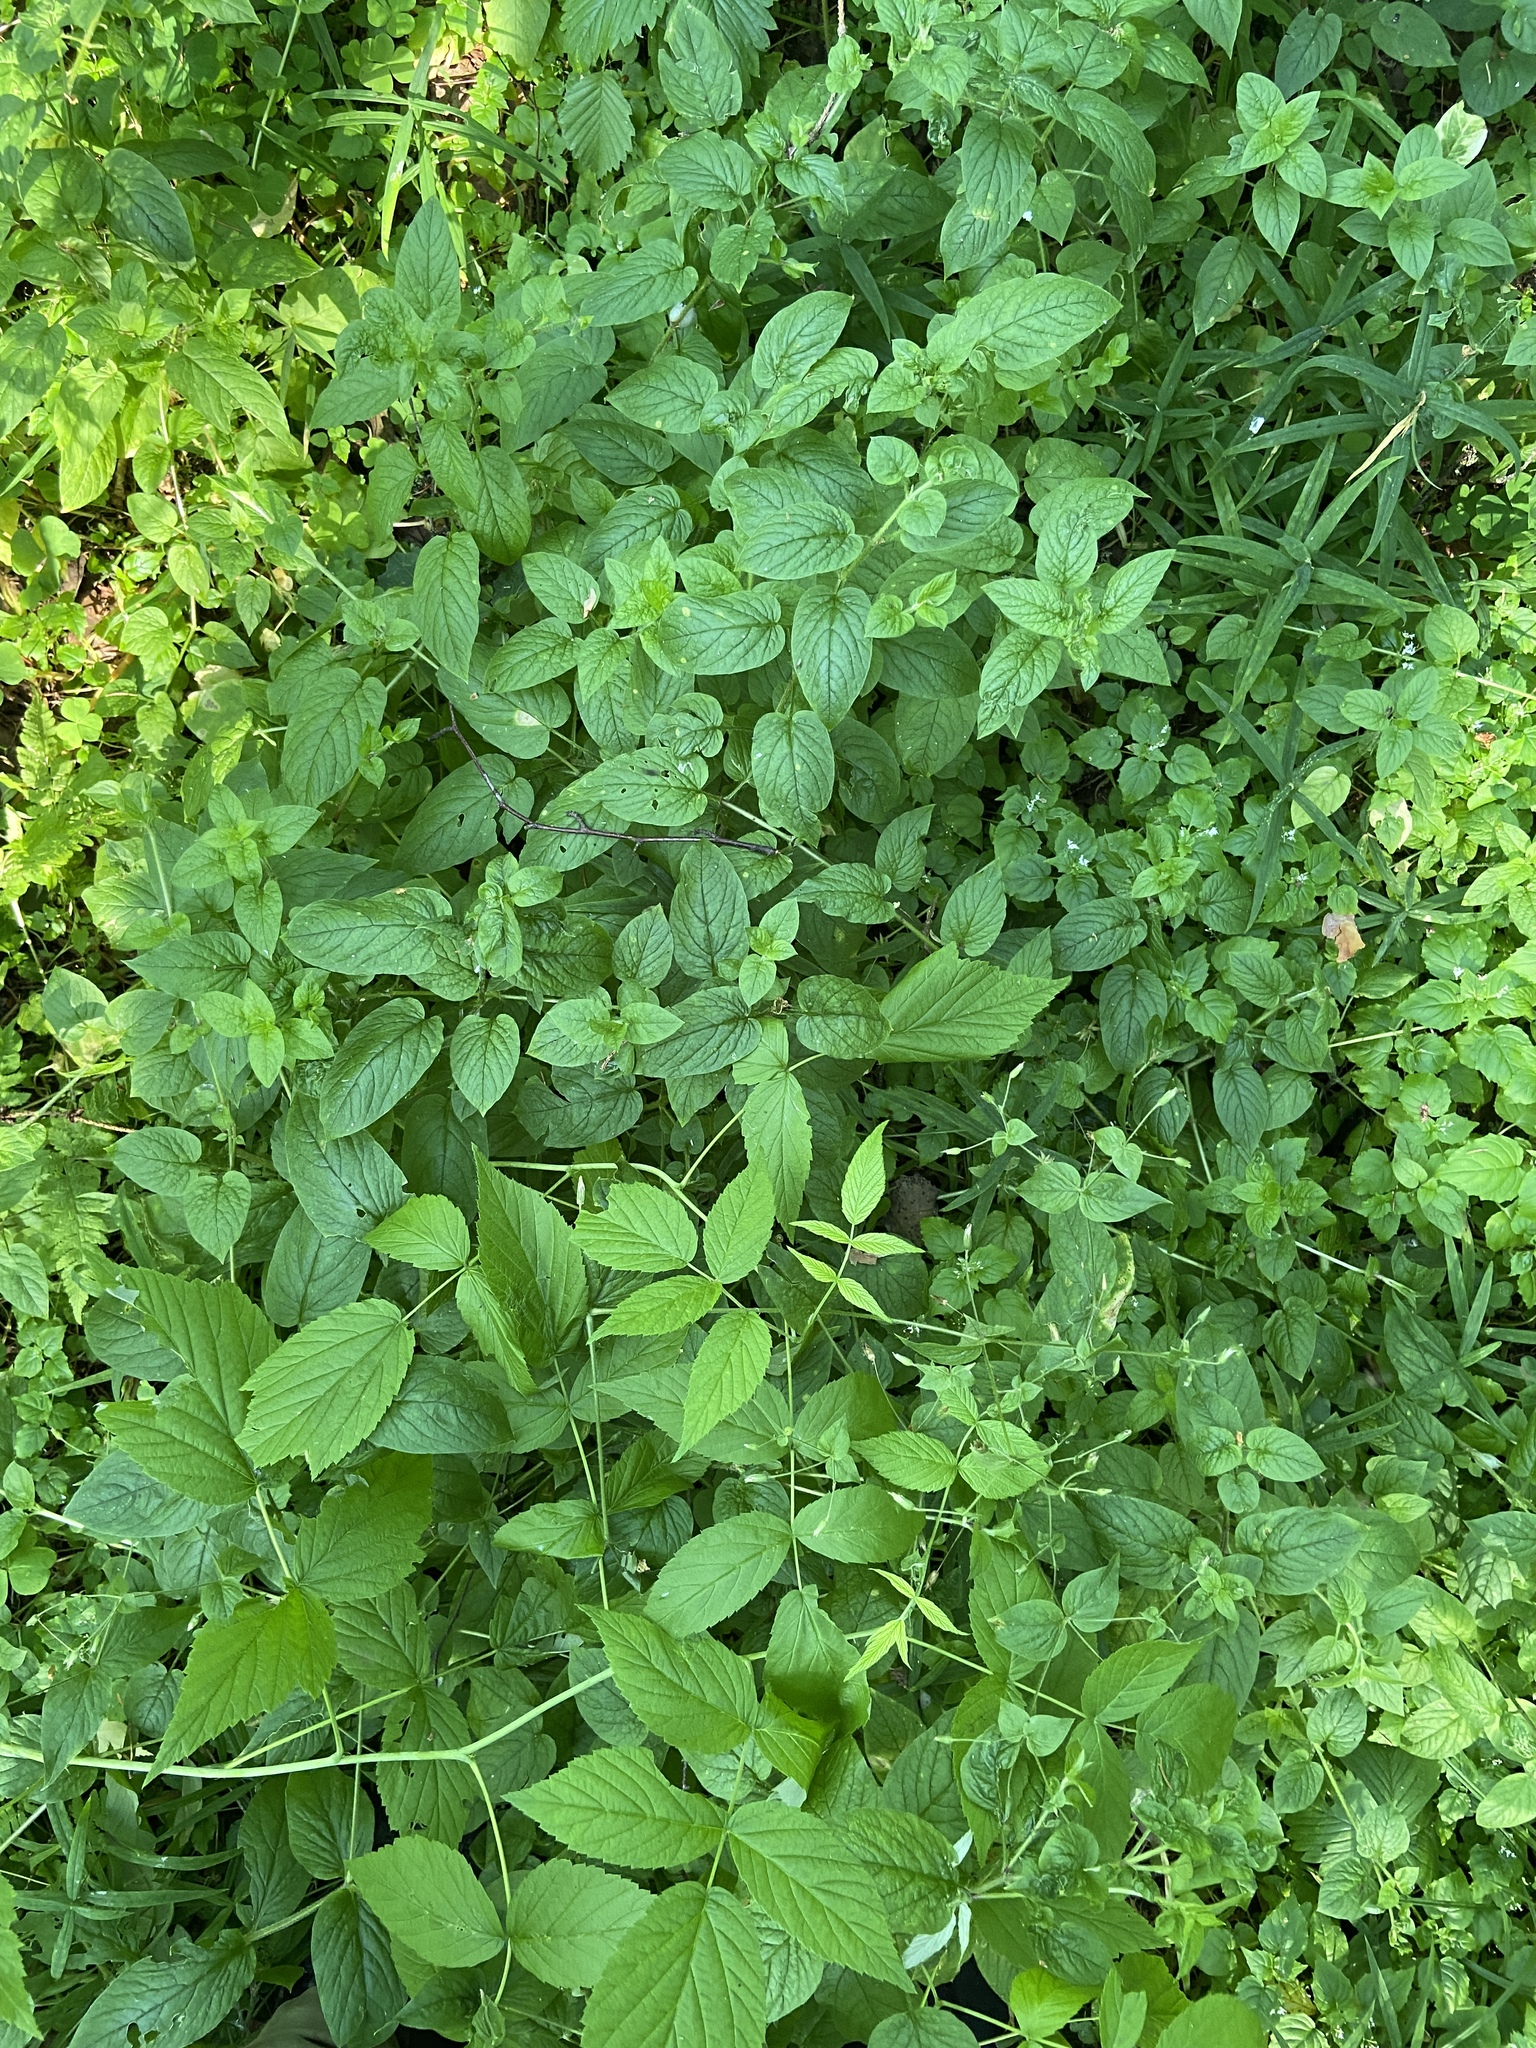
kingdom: Plantae
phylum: Tracheophyta
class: Magnoliopsida
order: Caryophyllales
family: Caryophyllaceae
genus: Stellaria
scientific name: Stellaria nemorum
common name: Wood stitchwort
